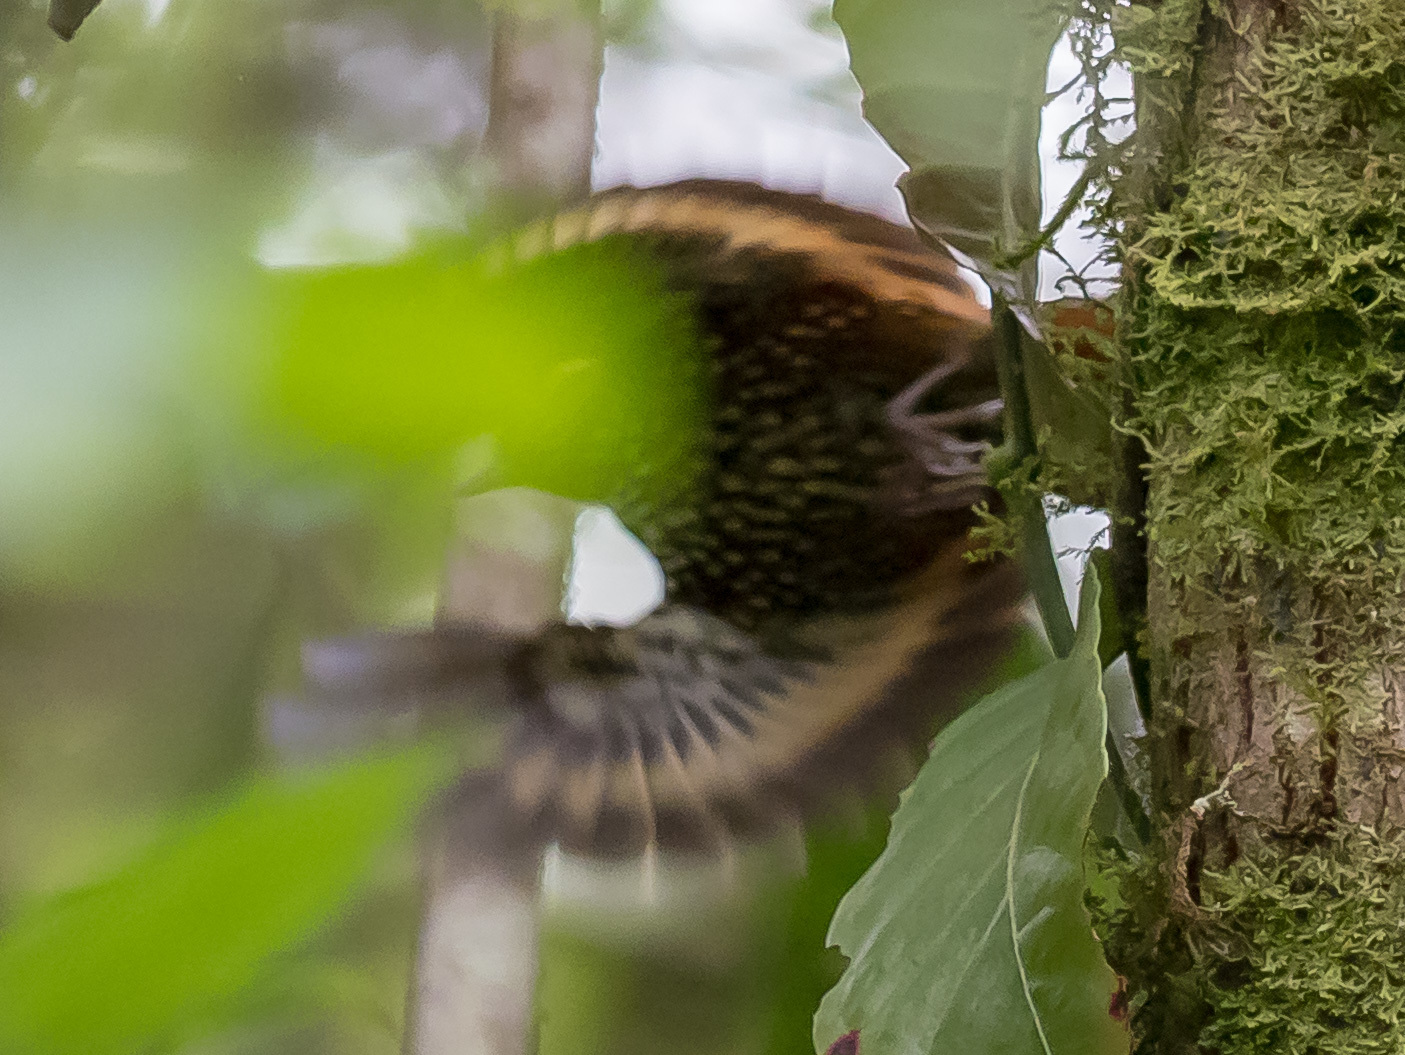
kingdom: Animalia
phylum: Chordata
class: Aves
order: Passeriformes
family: Furnariidae
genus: Margarornis
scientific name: Margarornis squamiger
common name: Pearled treerunner
